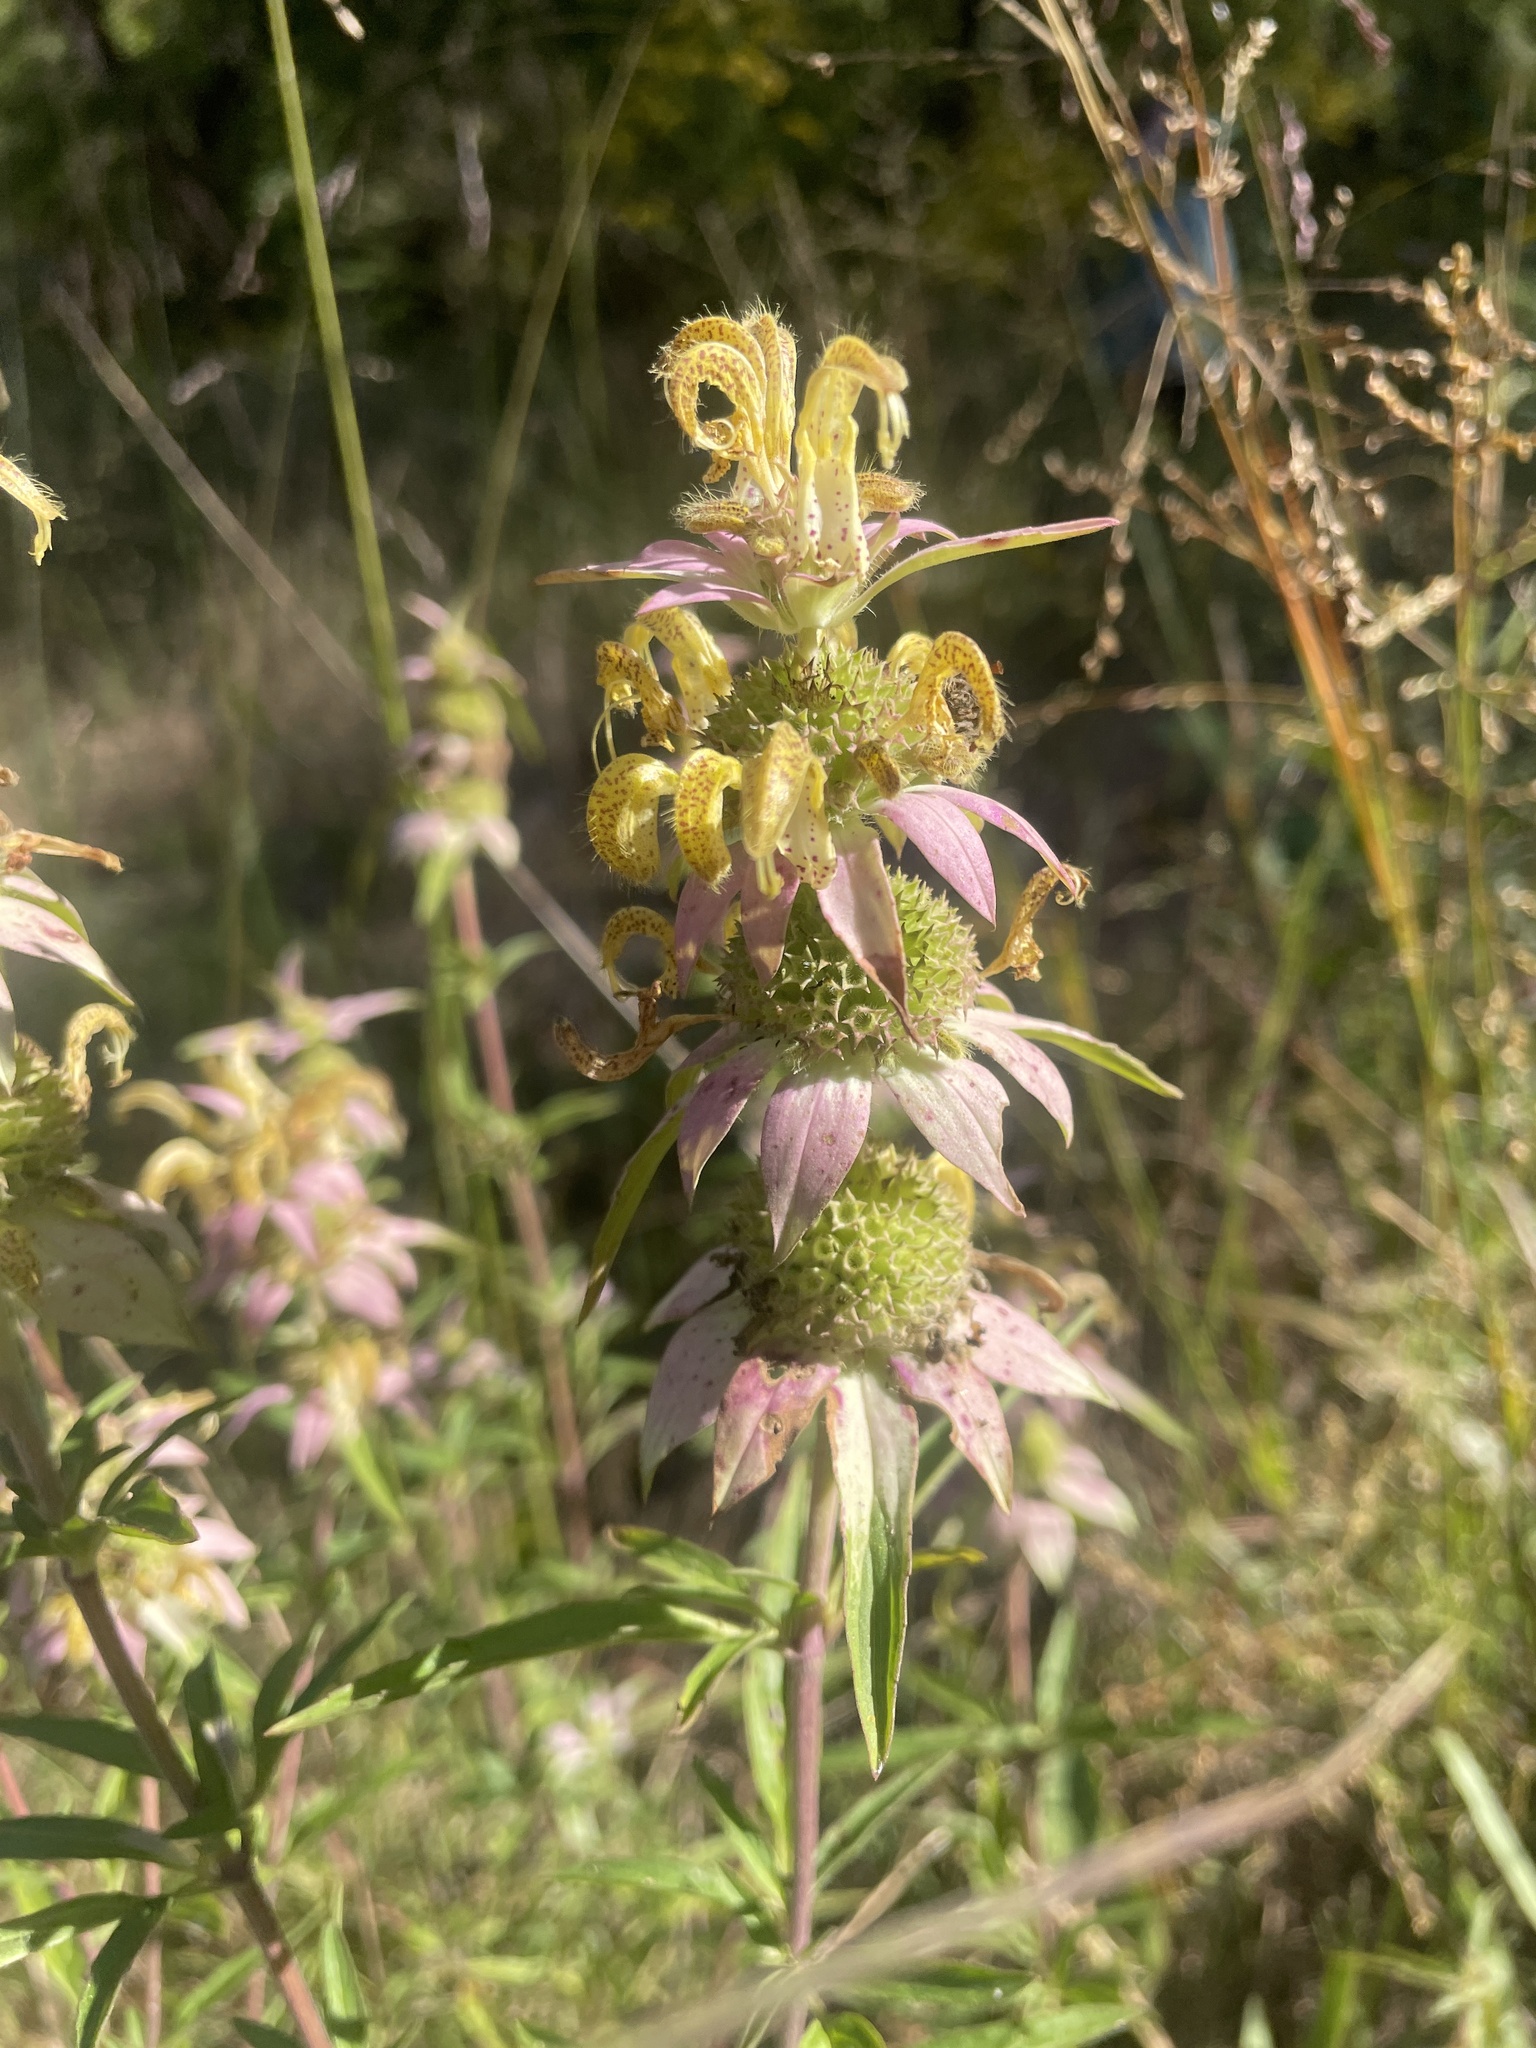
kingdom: Plantae
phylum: Tracheophyta
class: Magnoliopsida
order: Lamiales
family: Lamiaceae
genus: Monarda
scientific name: Monarda punctata
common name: Dotted monarda
